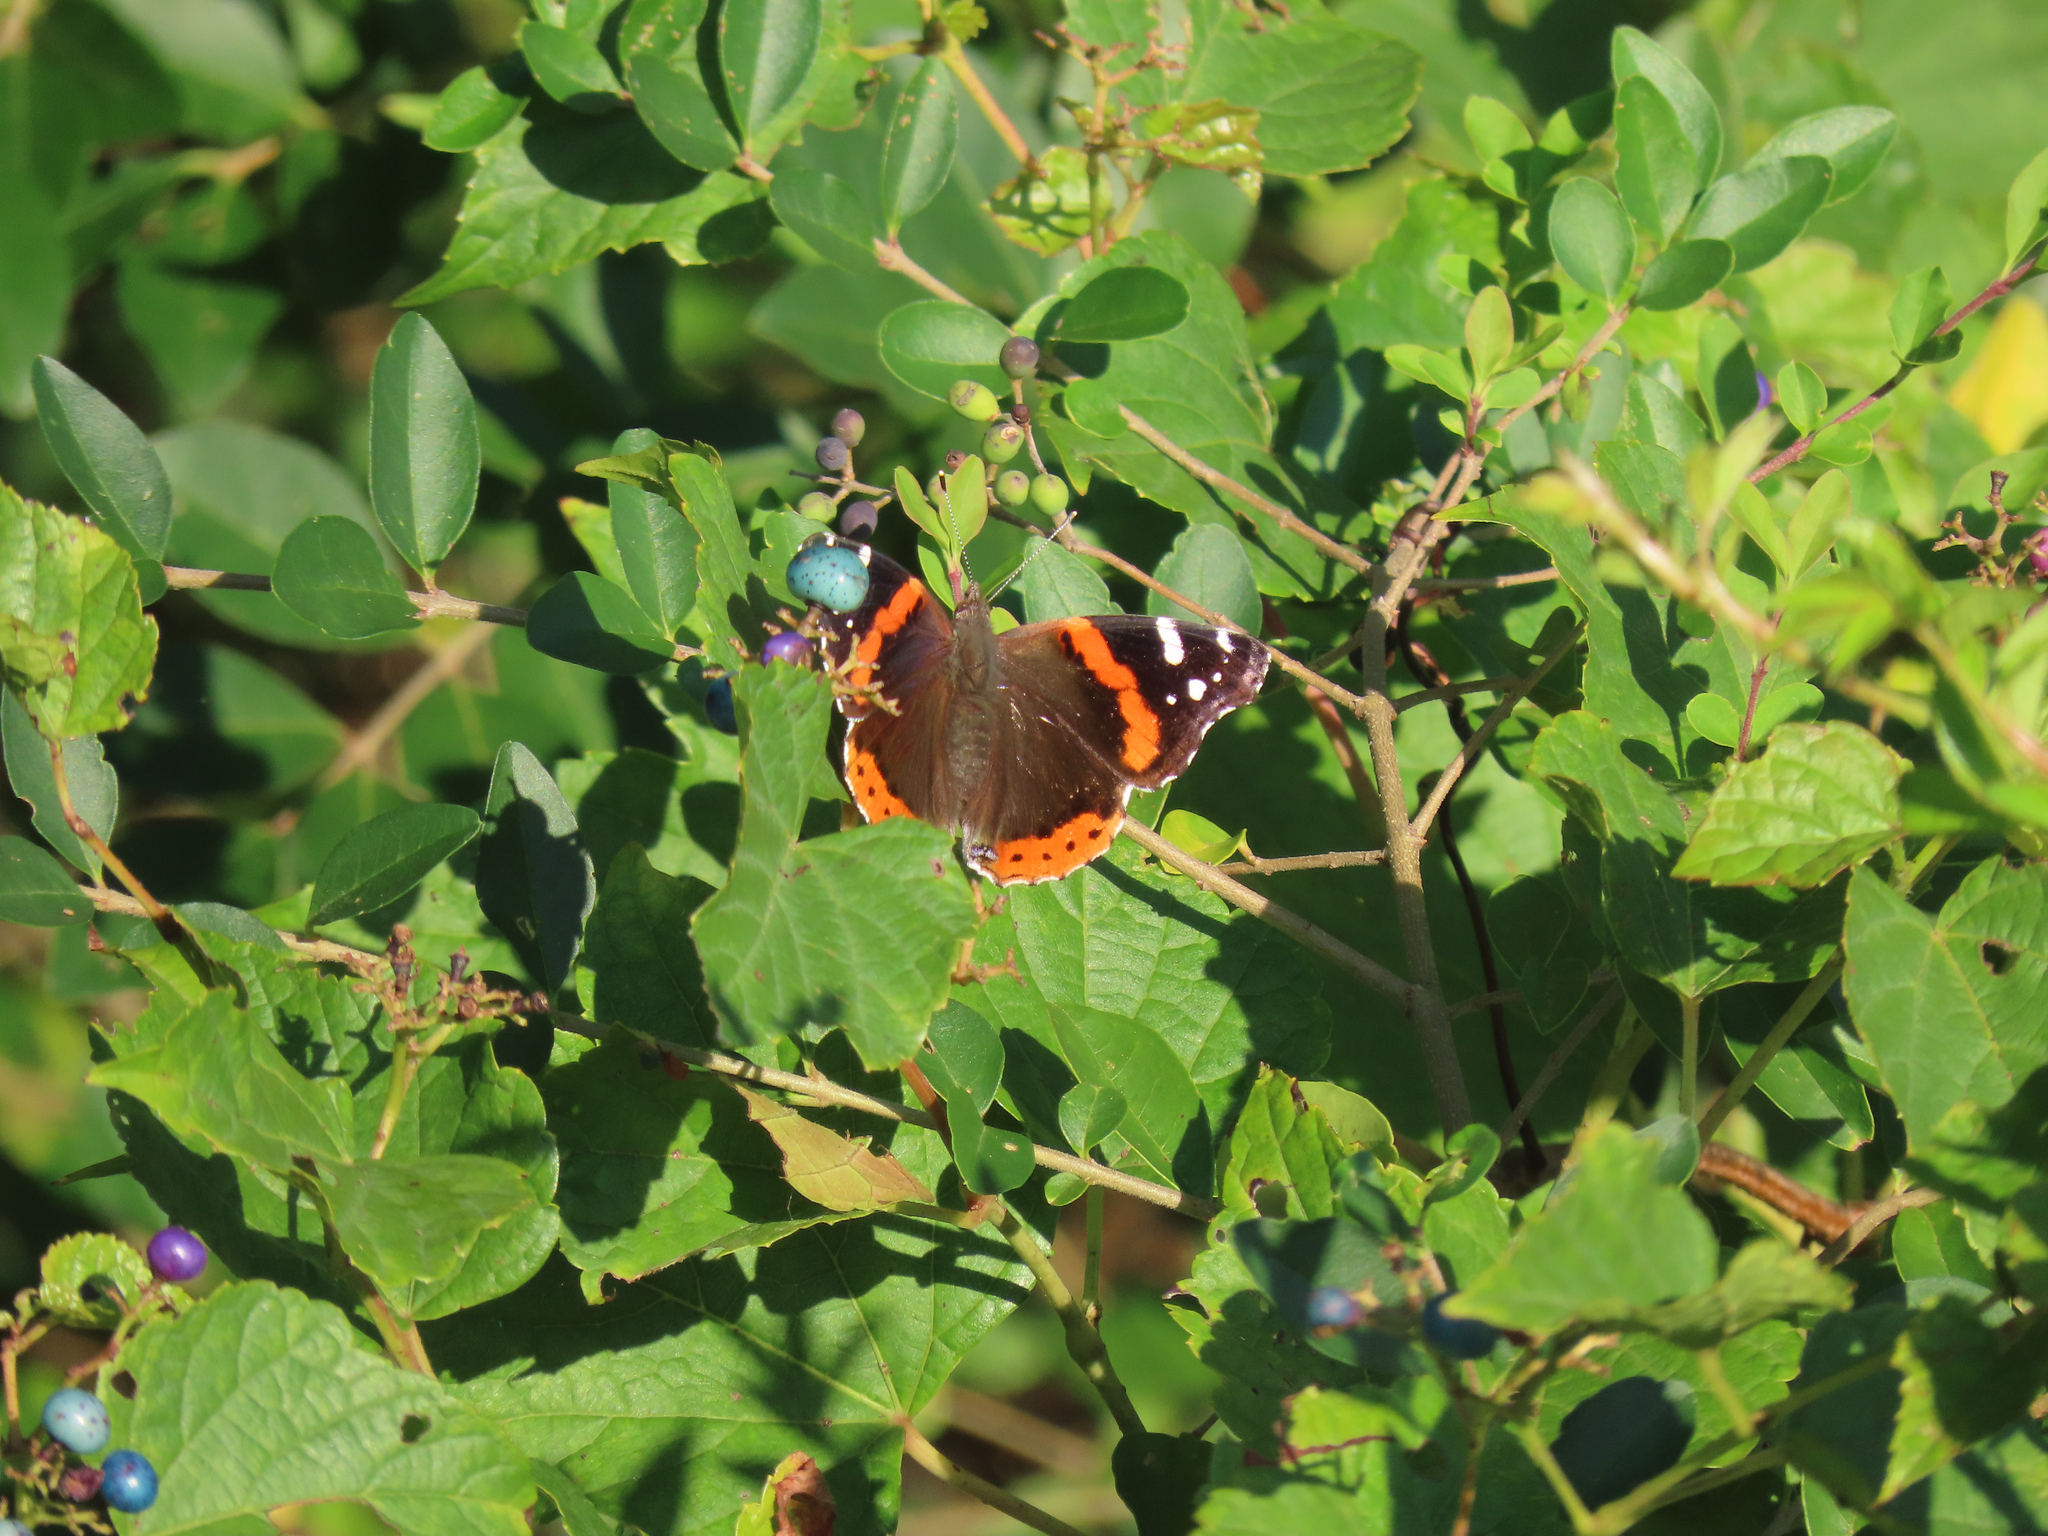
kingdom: Animalia
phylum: Arthropoda
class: Insecta
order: Lepidoptera
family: Nymphalidae
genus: Vanessa
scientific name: Vanessa atalanta
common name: Red admiral
